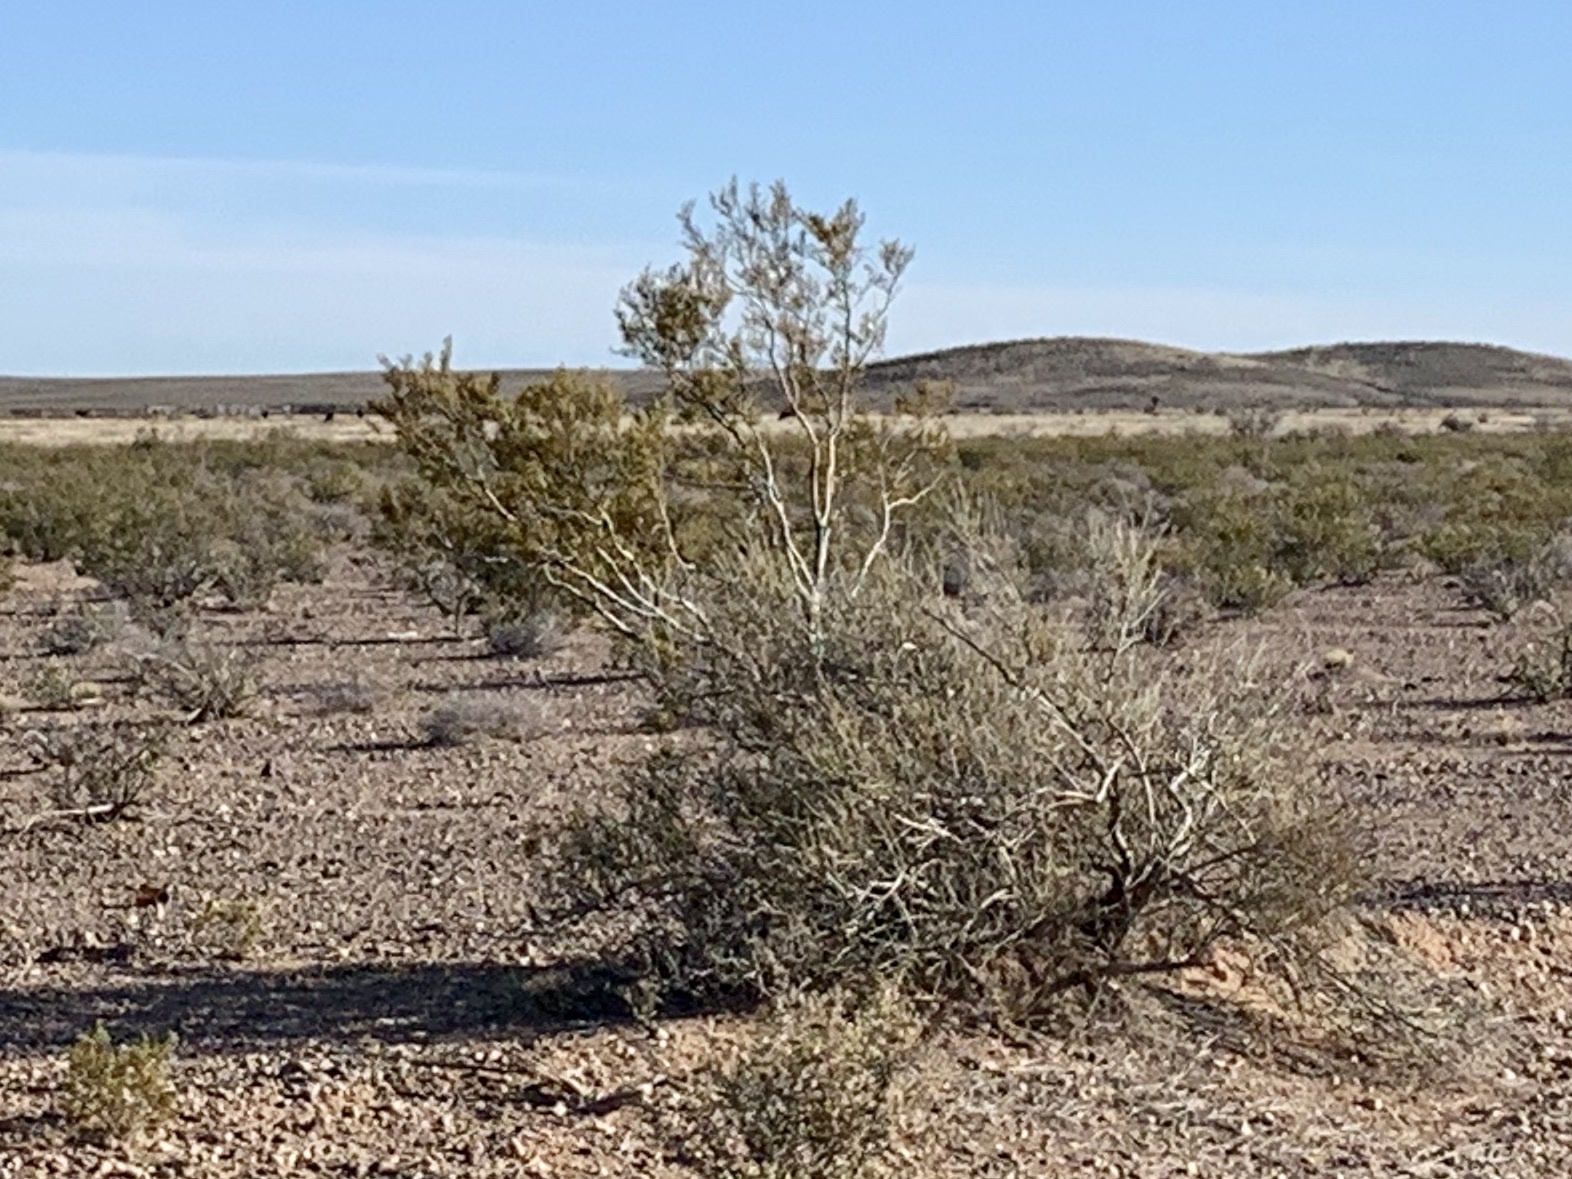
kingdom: Plantae
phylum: Tracheophyta
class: Magnoliopsida
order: Zygophyllales
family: Zygophyllaceae
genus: Larrea
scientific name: Larrea tridentata
